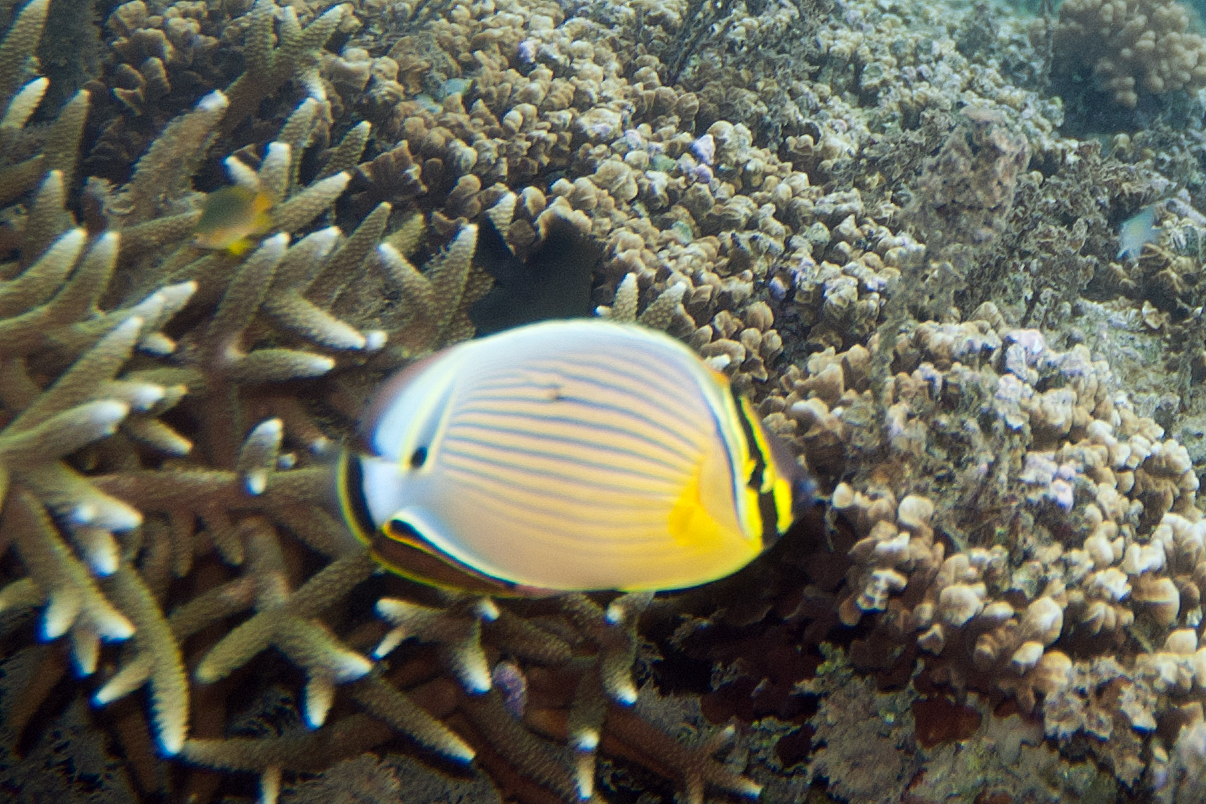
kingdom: Animalia
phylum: Chordata
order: Perciformes
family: Chaetodontidae
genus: Chaetodon
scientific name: Chaetodon lunulatus
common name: Redfin butterflyfish
